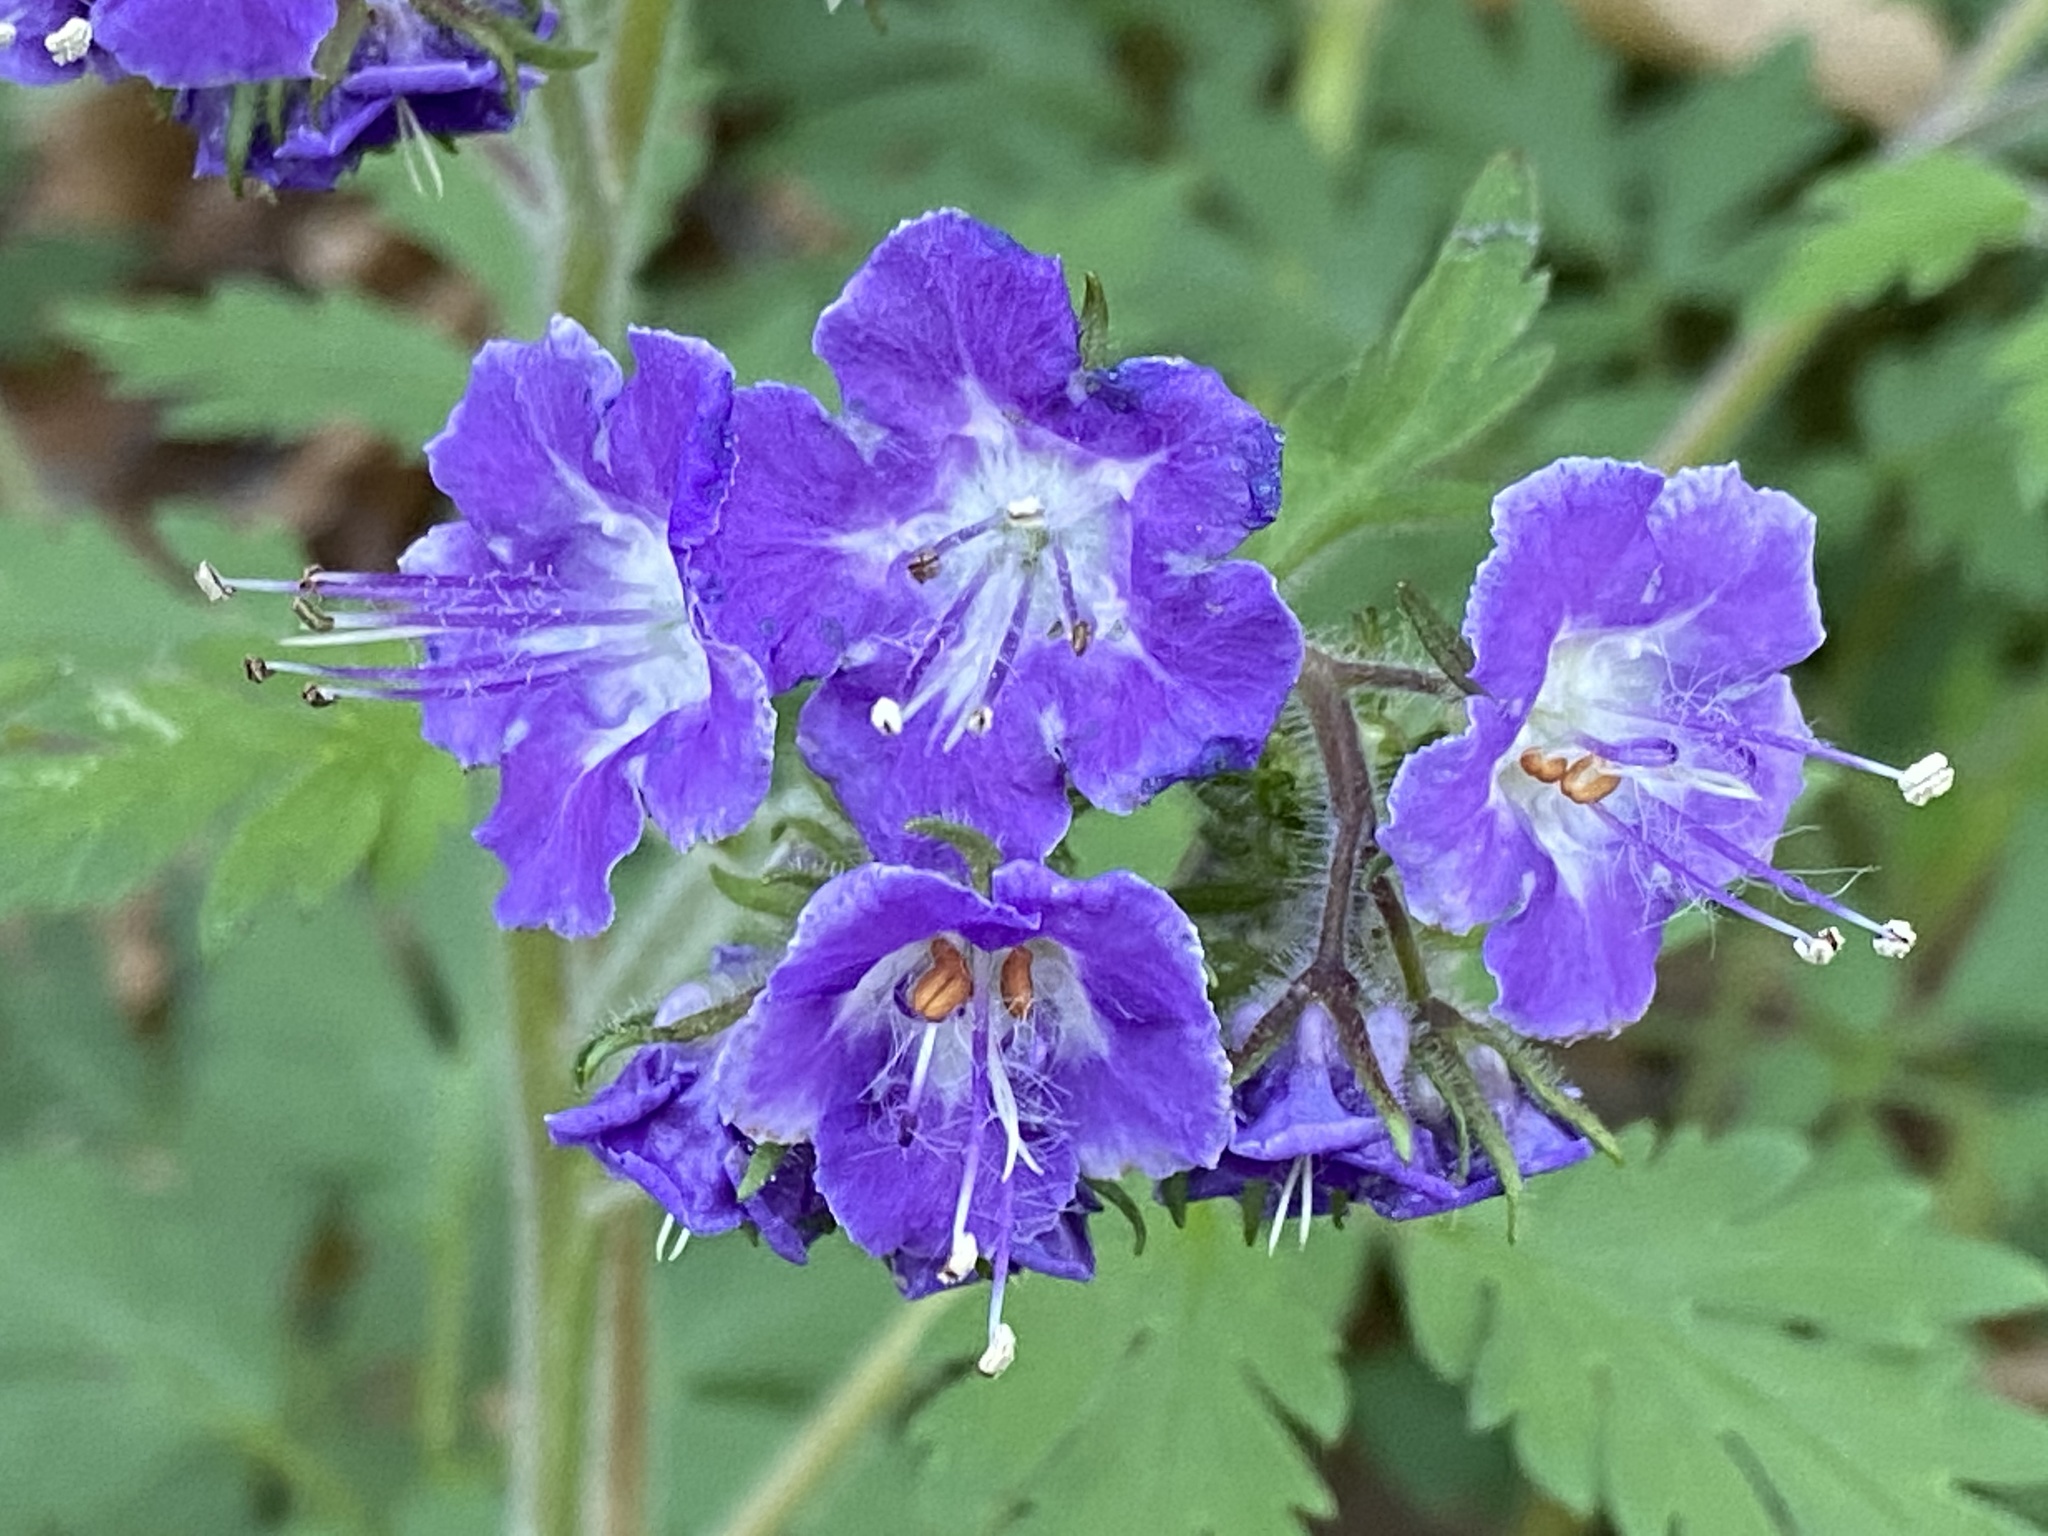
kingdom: Plantae
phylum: Tracheophyta
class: Magnoliopsida
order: Boraginales
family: Hydrophyllaceae
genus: Phacelia
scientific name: Phacelia bipinnatifida
